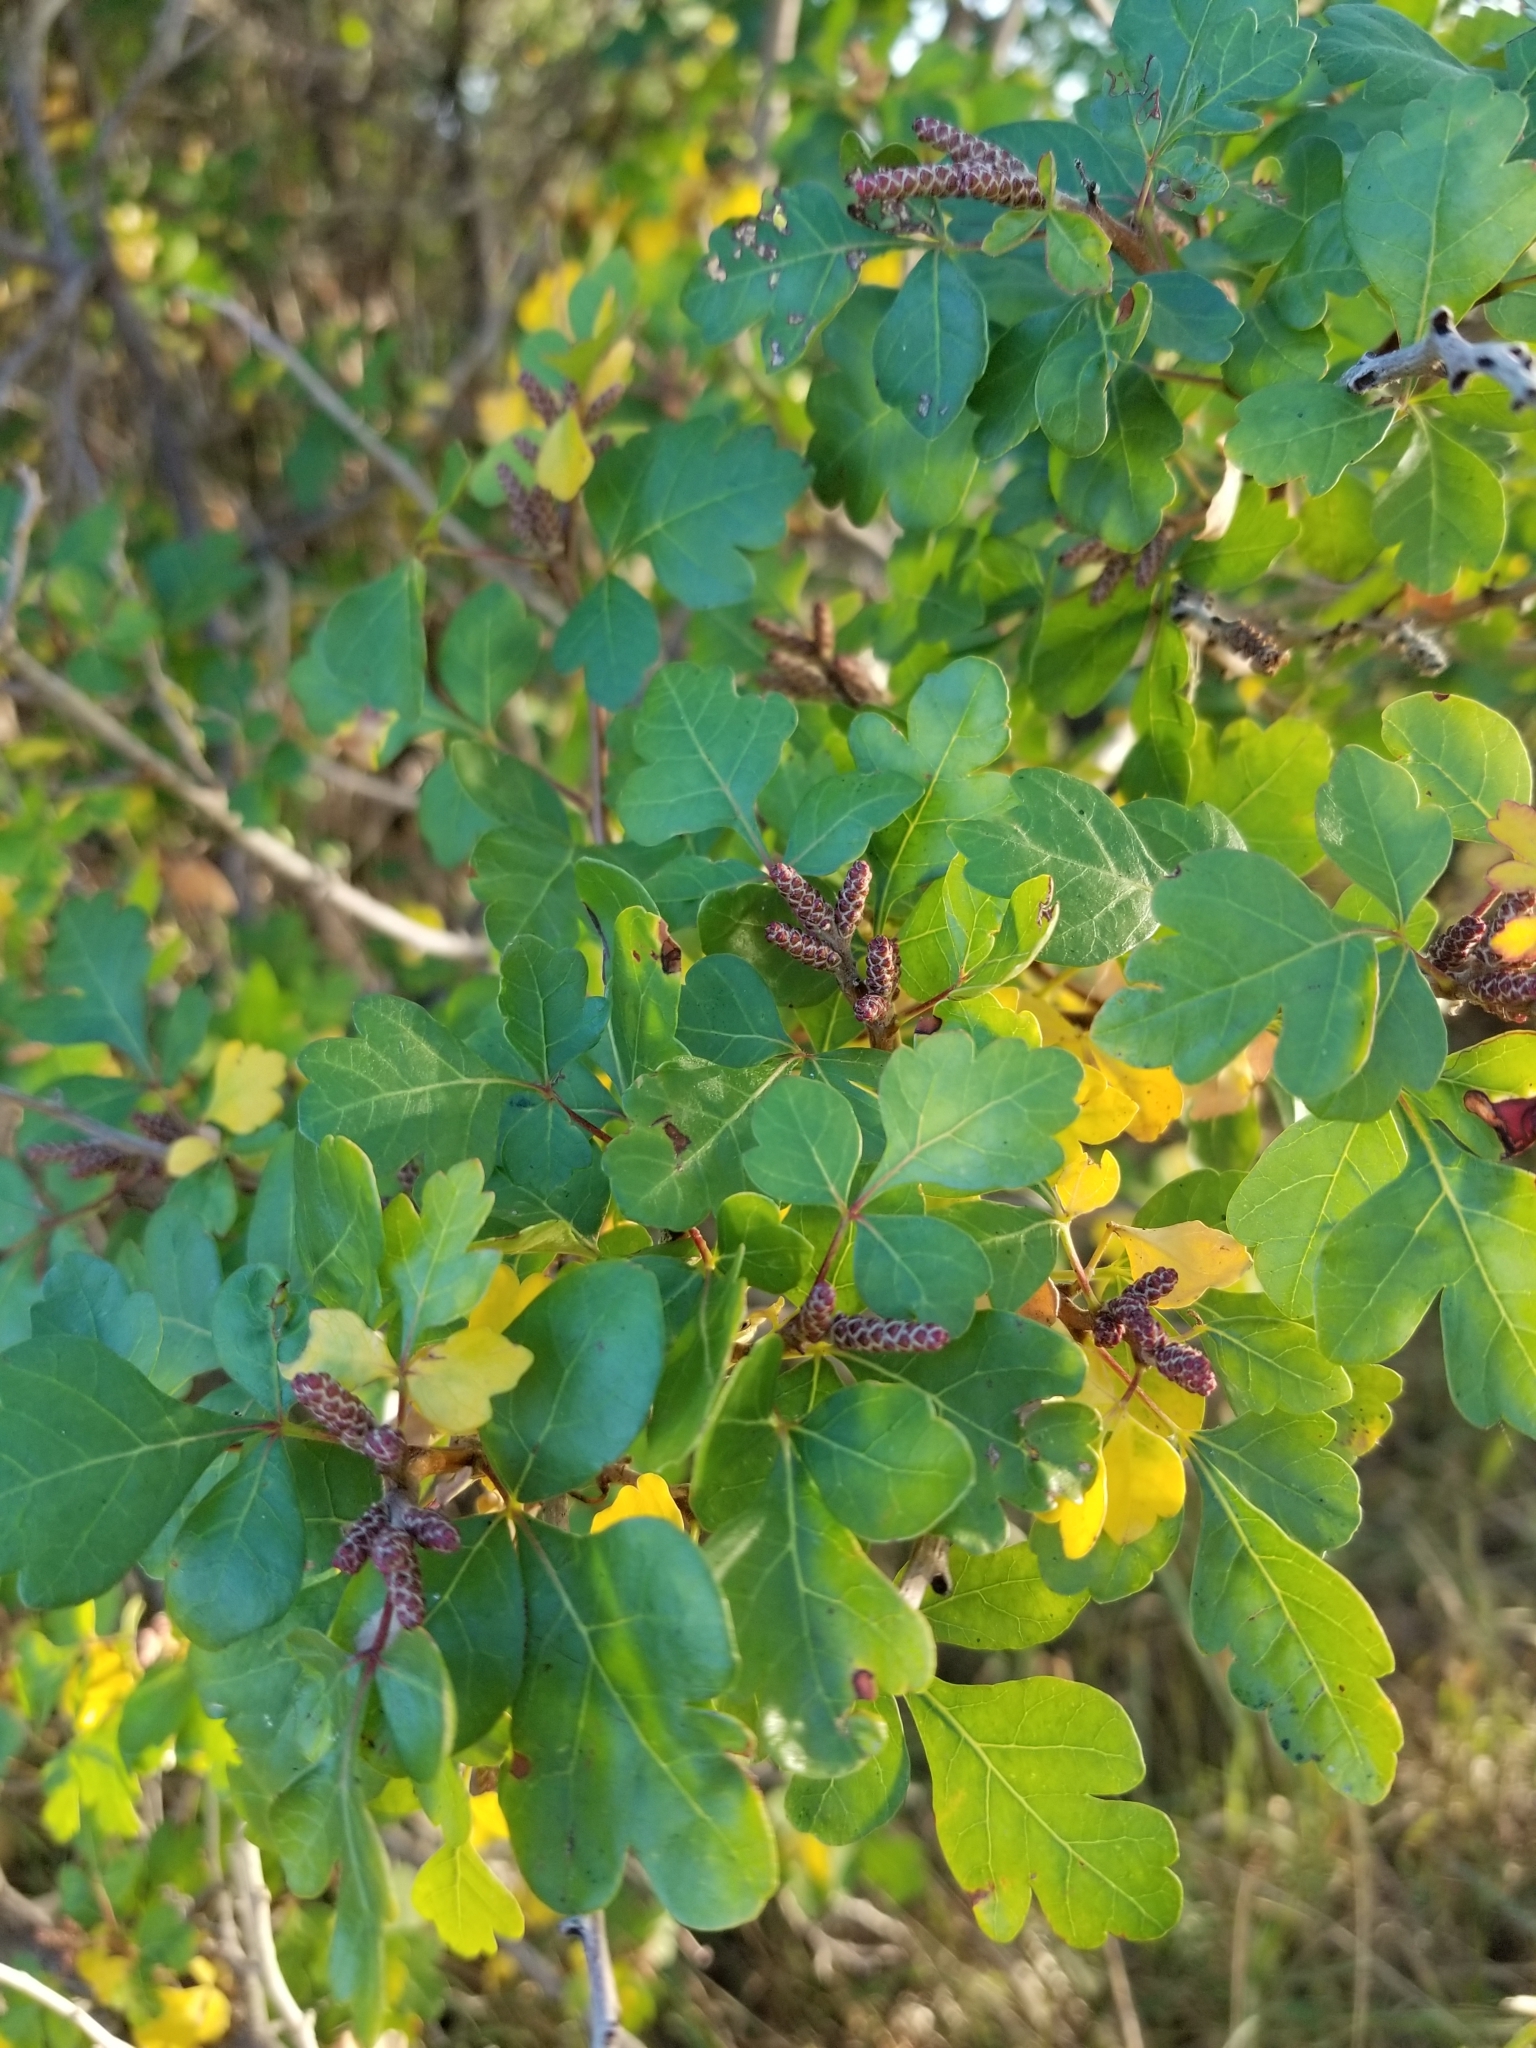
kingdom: Plantae
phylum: Tracheophyta
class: Magnoliopsida
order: Sapindales
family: Anacardiaceae
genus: Rhus
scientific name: Rhus aromatica
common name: Aromatic sumac
